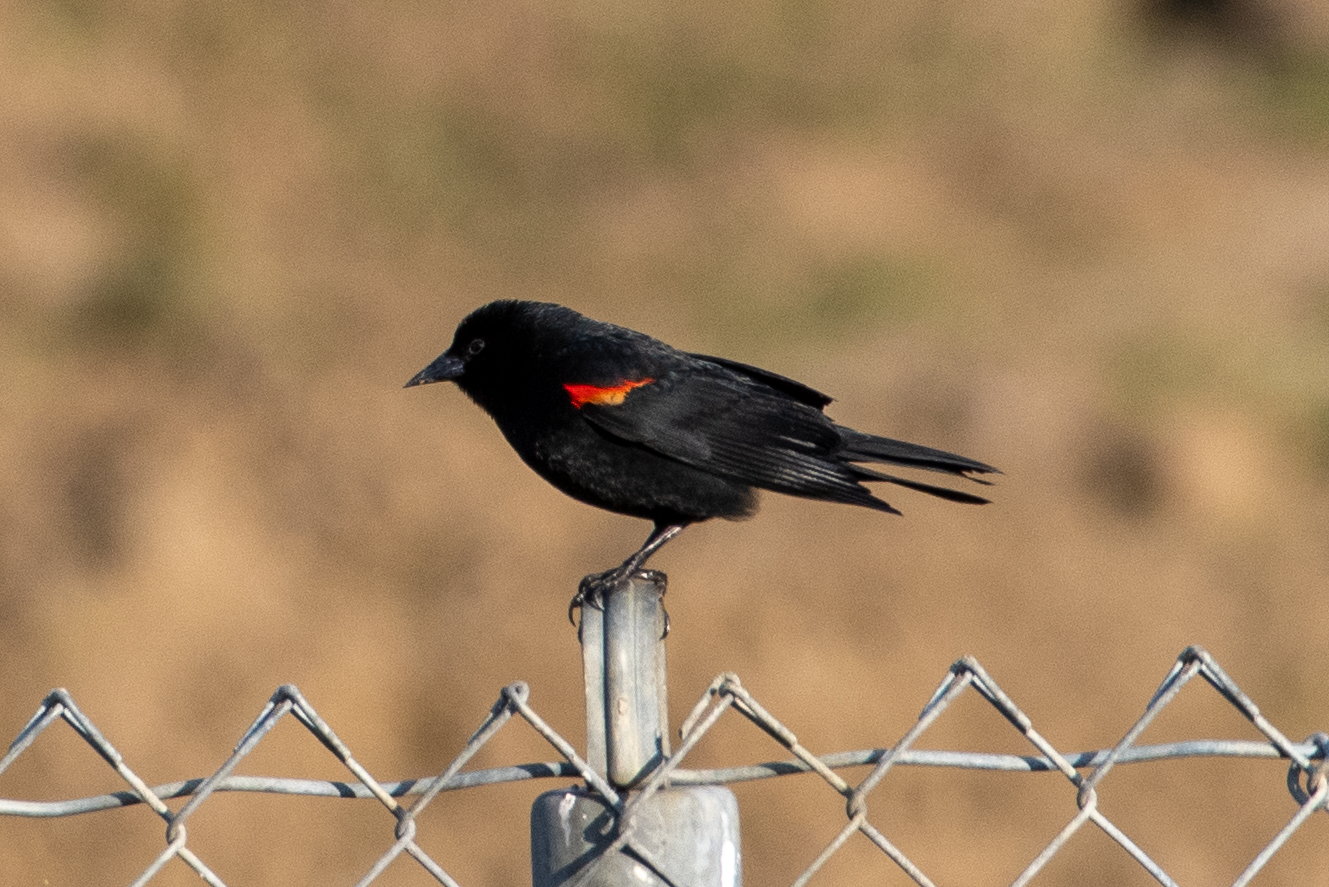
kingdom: Animalia
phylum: Chordata
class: Aves
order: Passeriformes
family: Icteridae
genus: Agelaius
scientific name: Agelaius phoeniceus
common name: Red-winged blackbird
